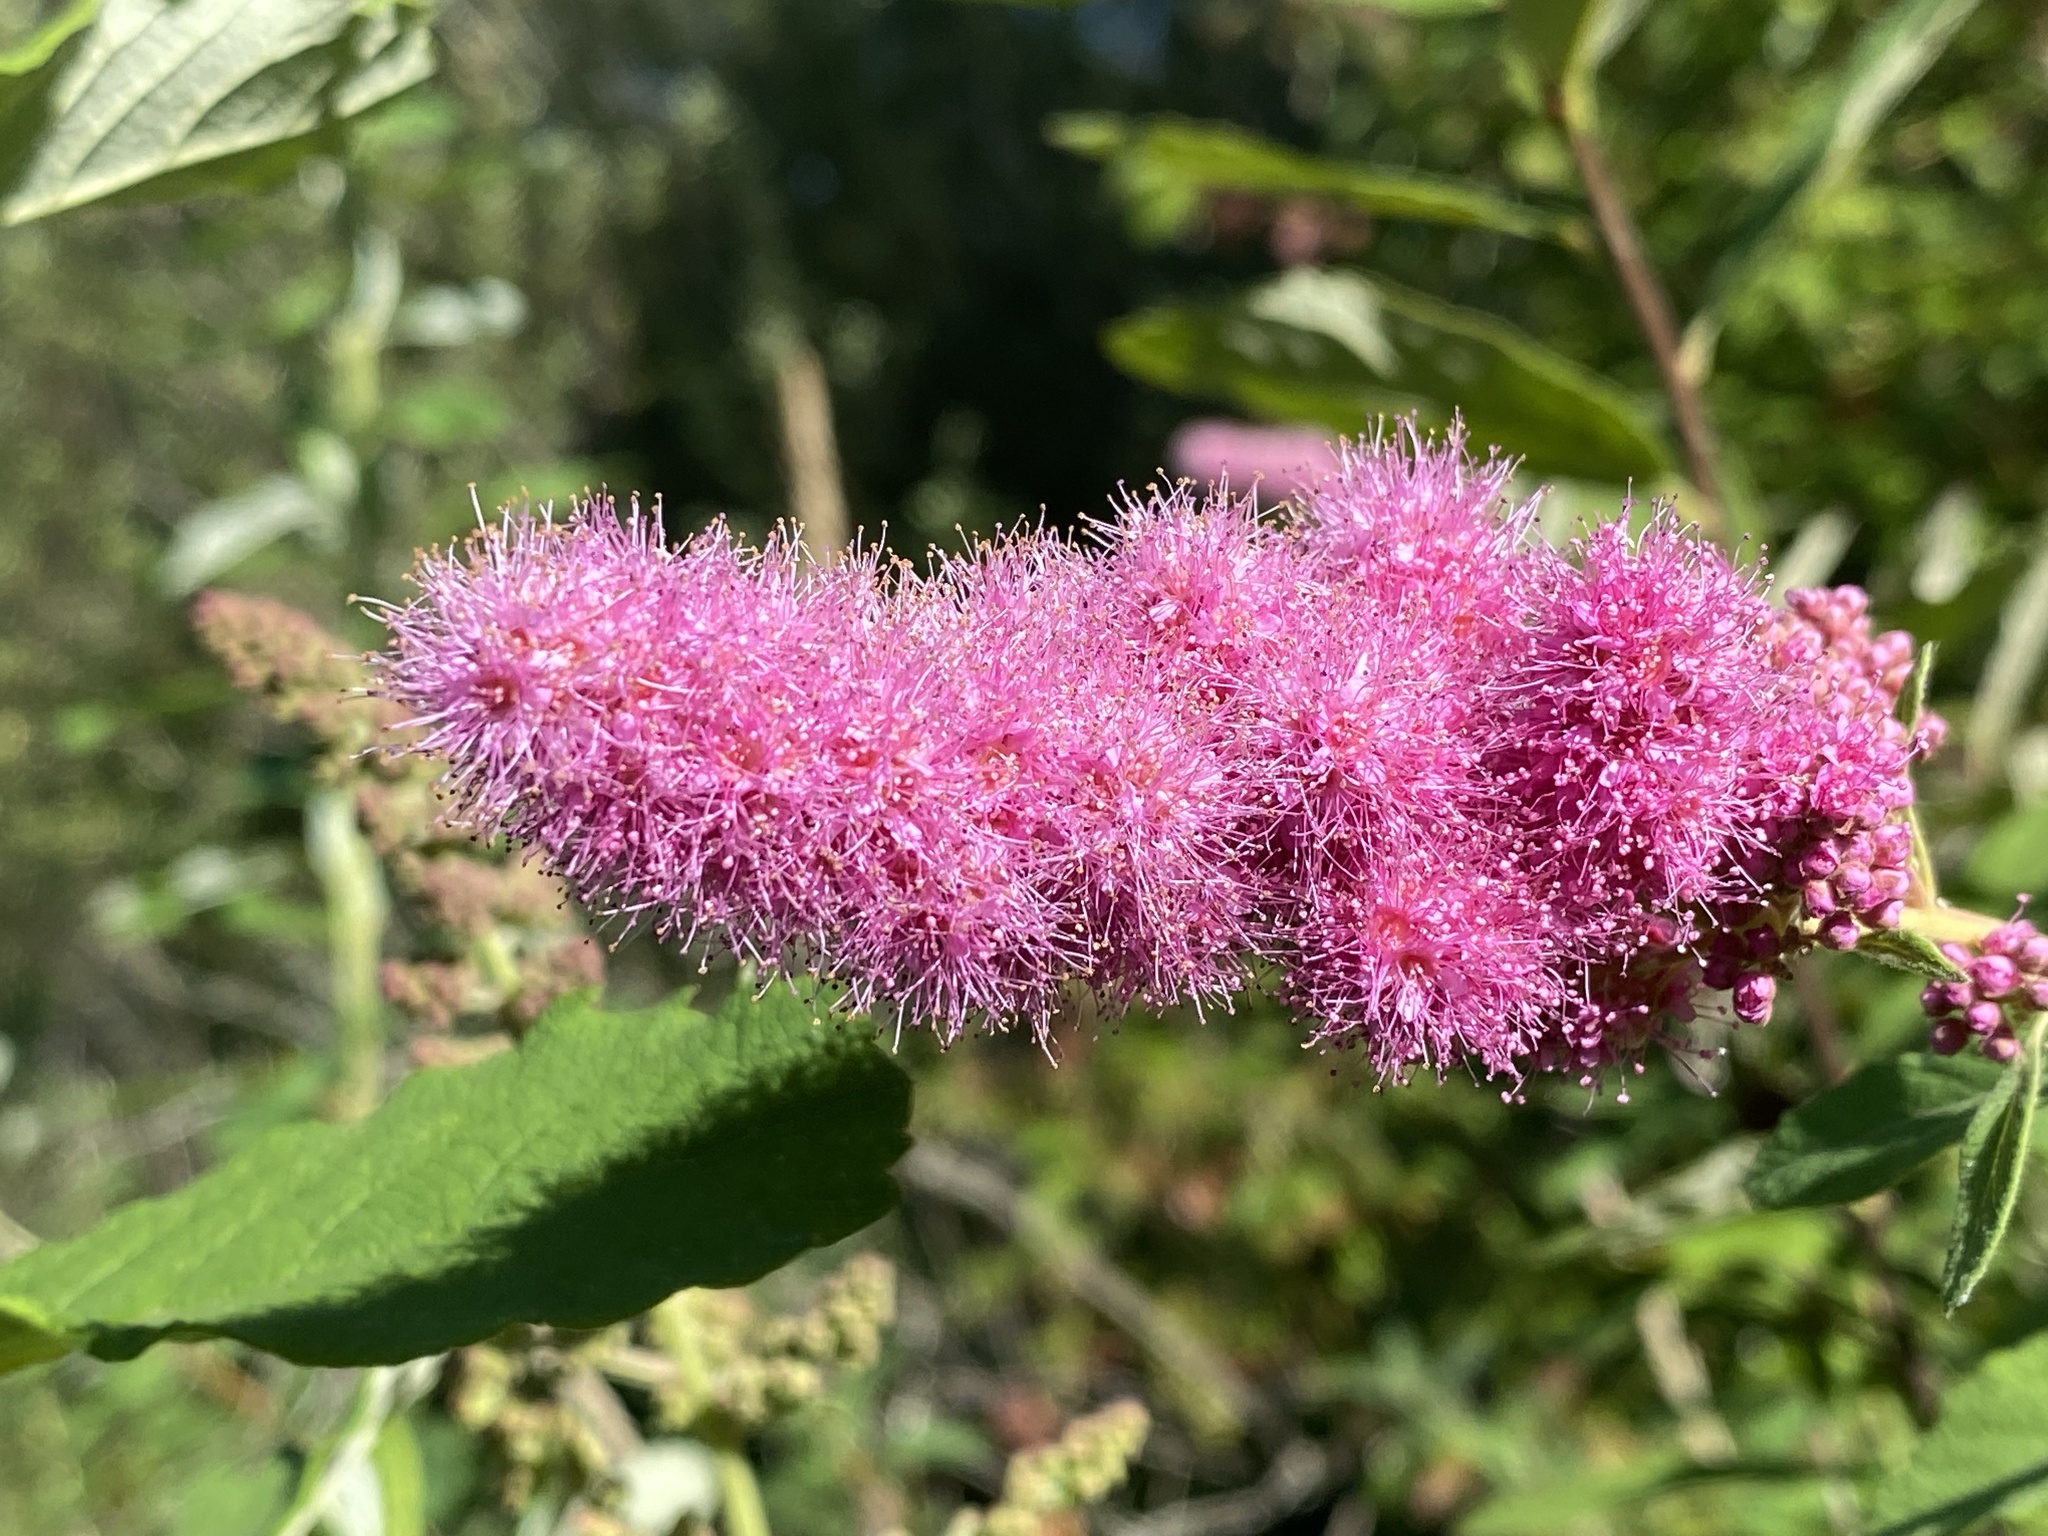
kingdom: Plantae
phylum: Tracheophyta
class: Magnoliopsida
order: Rosales
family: Rosaceae
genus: Spiraea
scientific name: Spiraea douglasii
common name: Steeplebush
